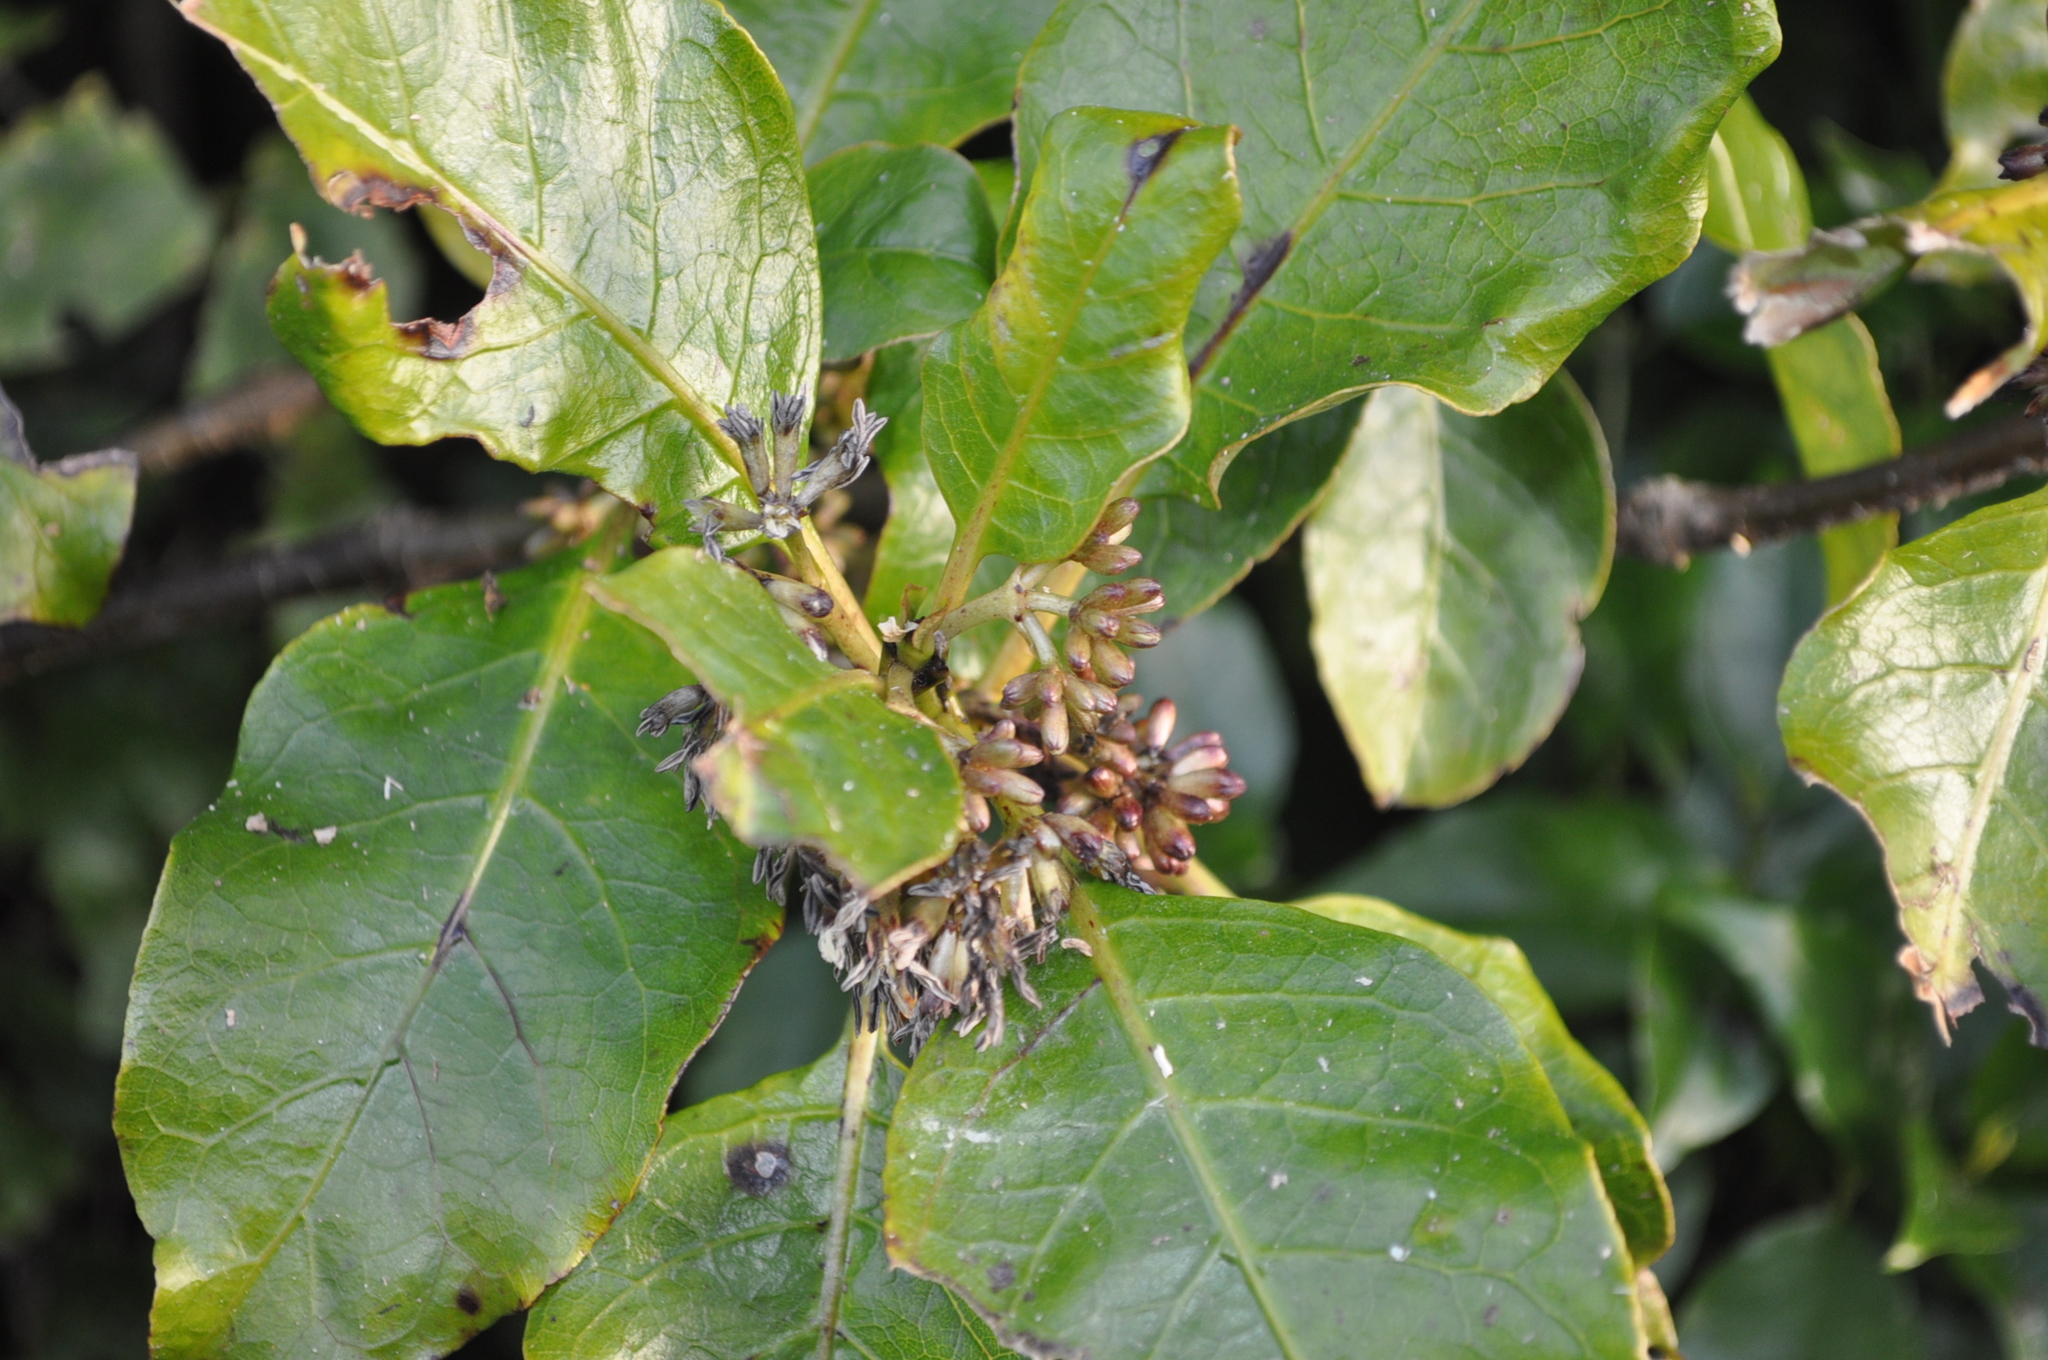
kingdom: Plantae
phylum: Tracheophyta
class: Magnoliopsida
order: Gentianales
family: Rubiaceae
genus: Coprosma
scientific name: Coprosma autumnalis
